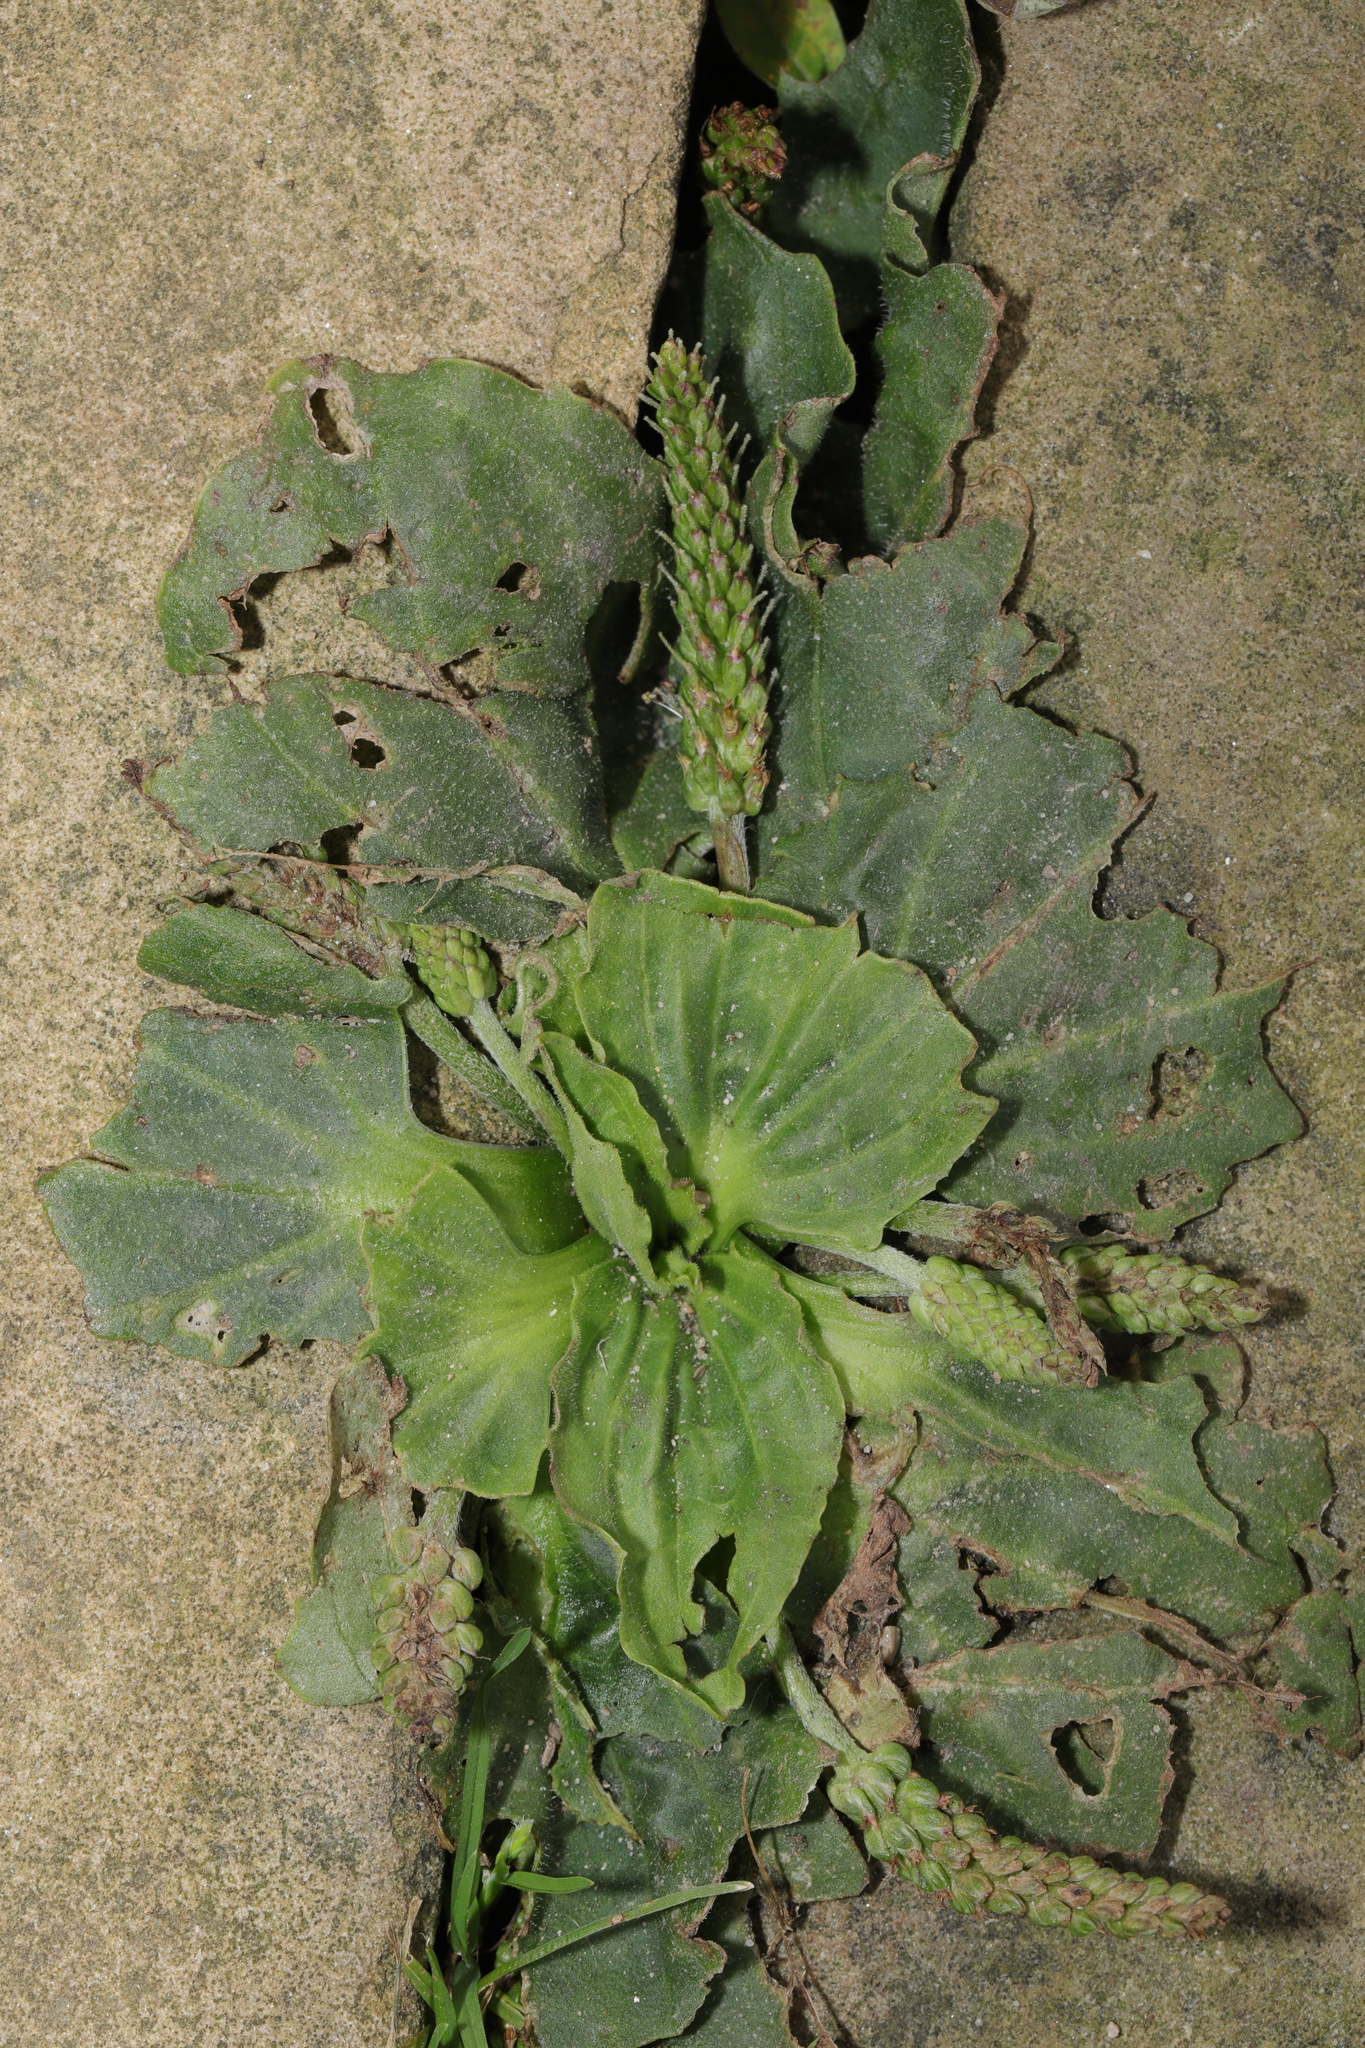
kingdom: Plantae
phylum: Tracheophyta
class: Magnoliopsida
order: Lamiales
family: Plantaginaceae
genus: Plantago
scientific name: Plantago major
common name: Common plantain
